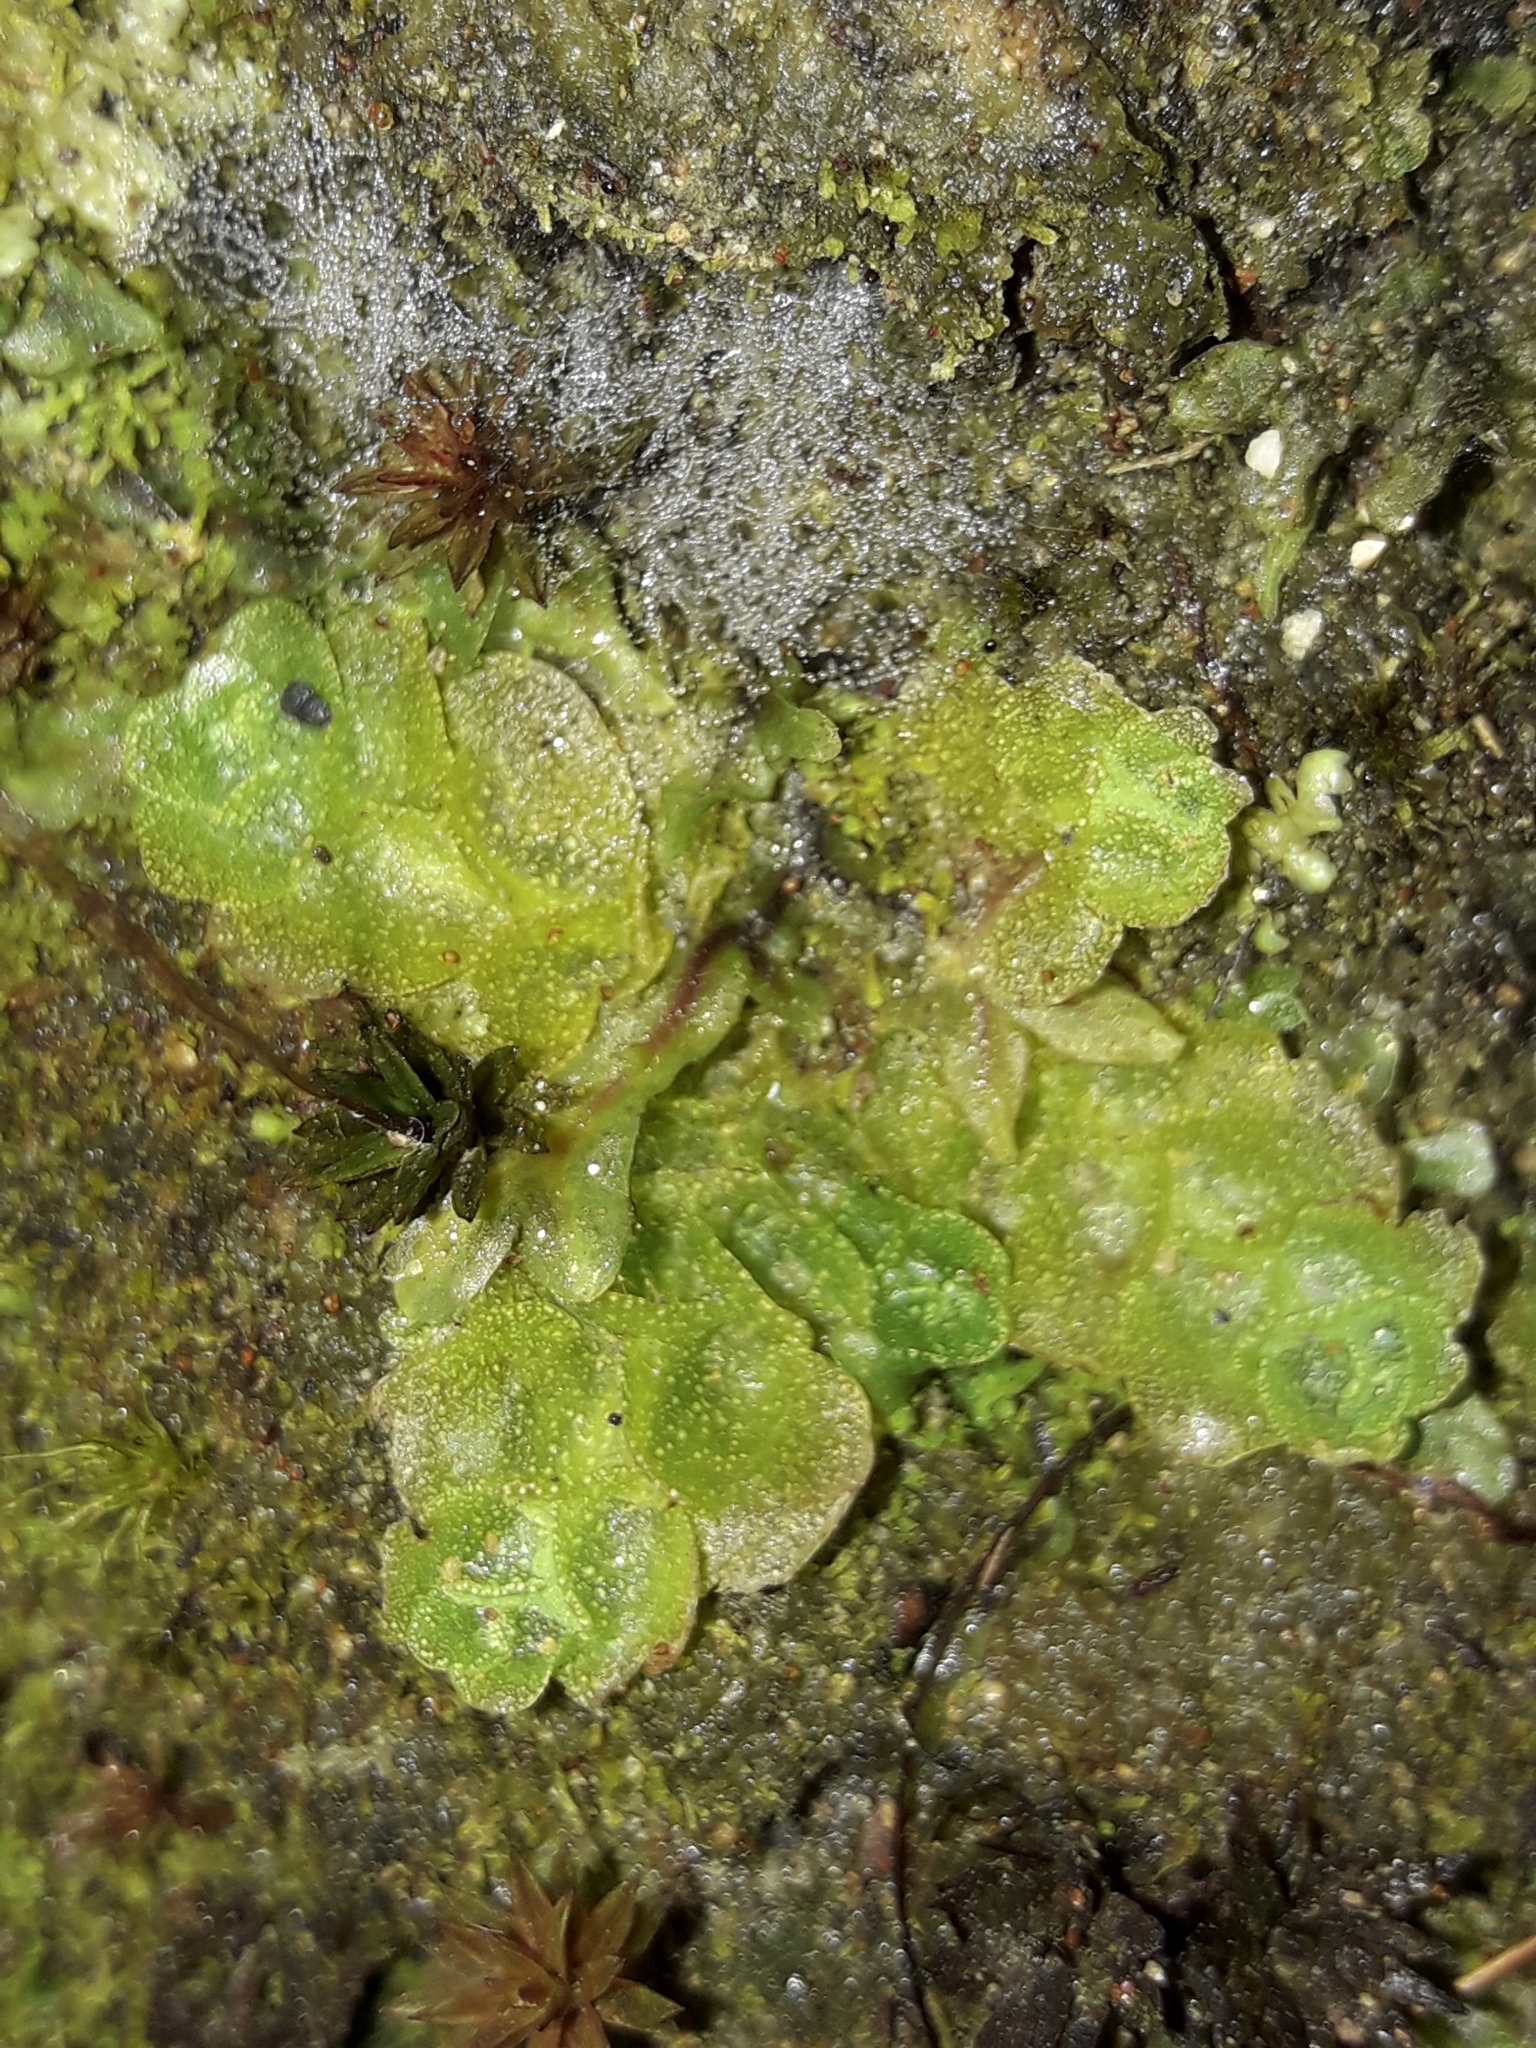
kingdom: Plantae
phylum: Marchantiophyta
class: Haplomitriopsida
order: Treubiales
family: Treubiaceae
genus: Treubia
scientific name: Treubia lacunosa
